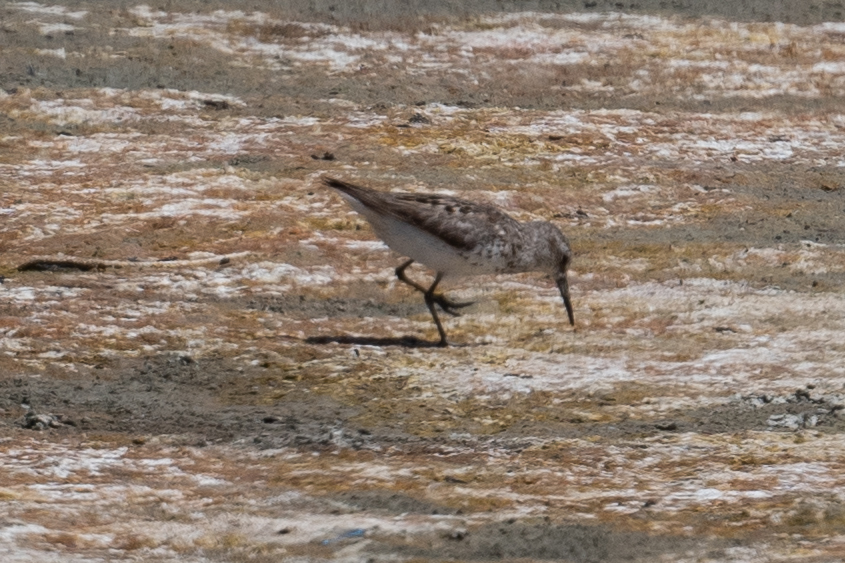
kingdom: Animalia
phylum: Chordata
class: Aves
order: Charadriiformes
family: Scolopacidae
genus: Calidris
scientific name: Calidris mauri
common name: Western sandpiper
